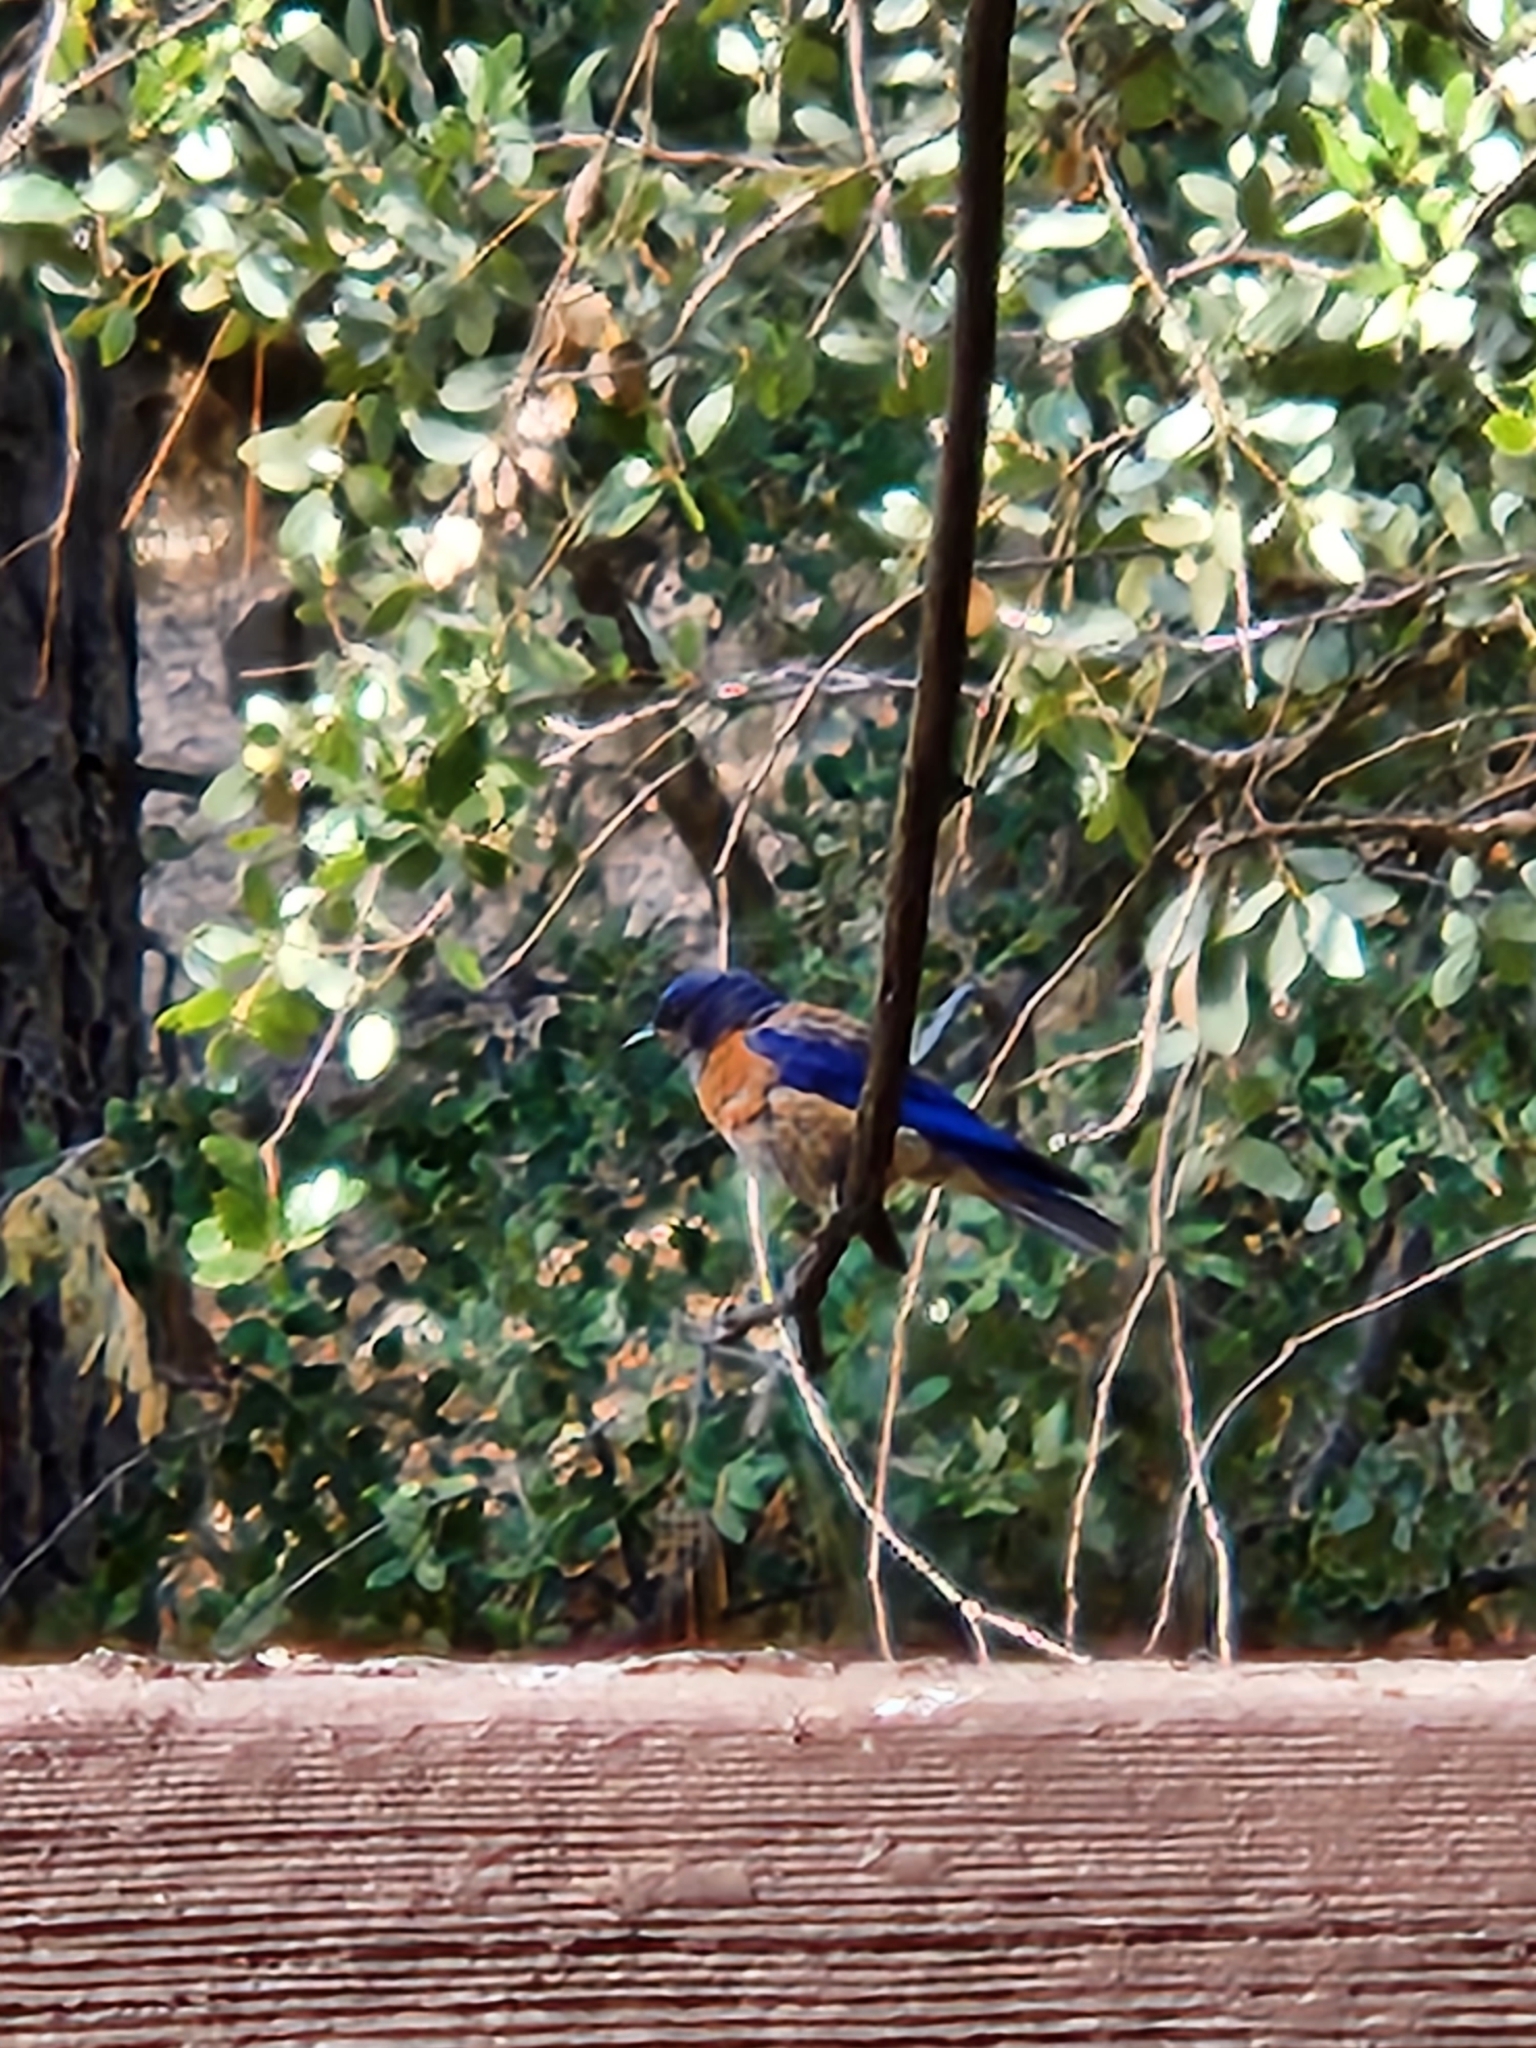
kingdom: Animalia
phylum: Chordata
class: Aves
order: Passeriformes
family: Turdidae
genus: Sialia
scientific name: Sialia mexicana
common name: Western bluebird
